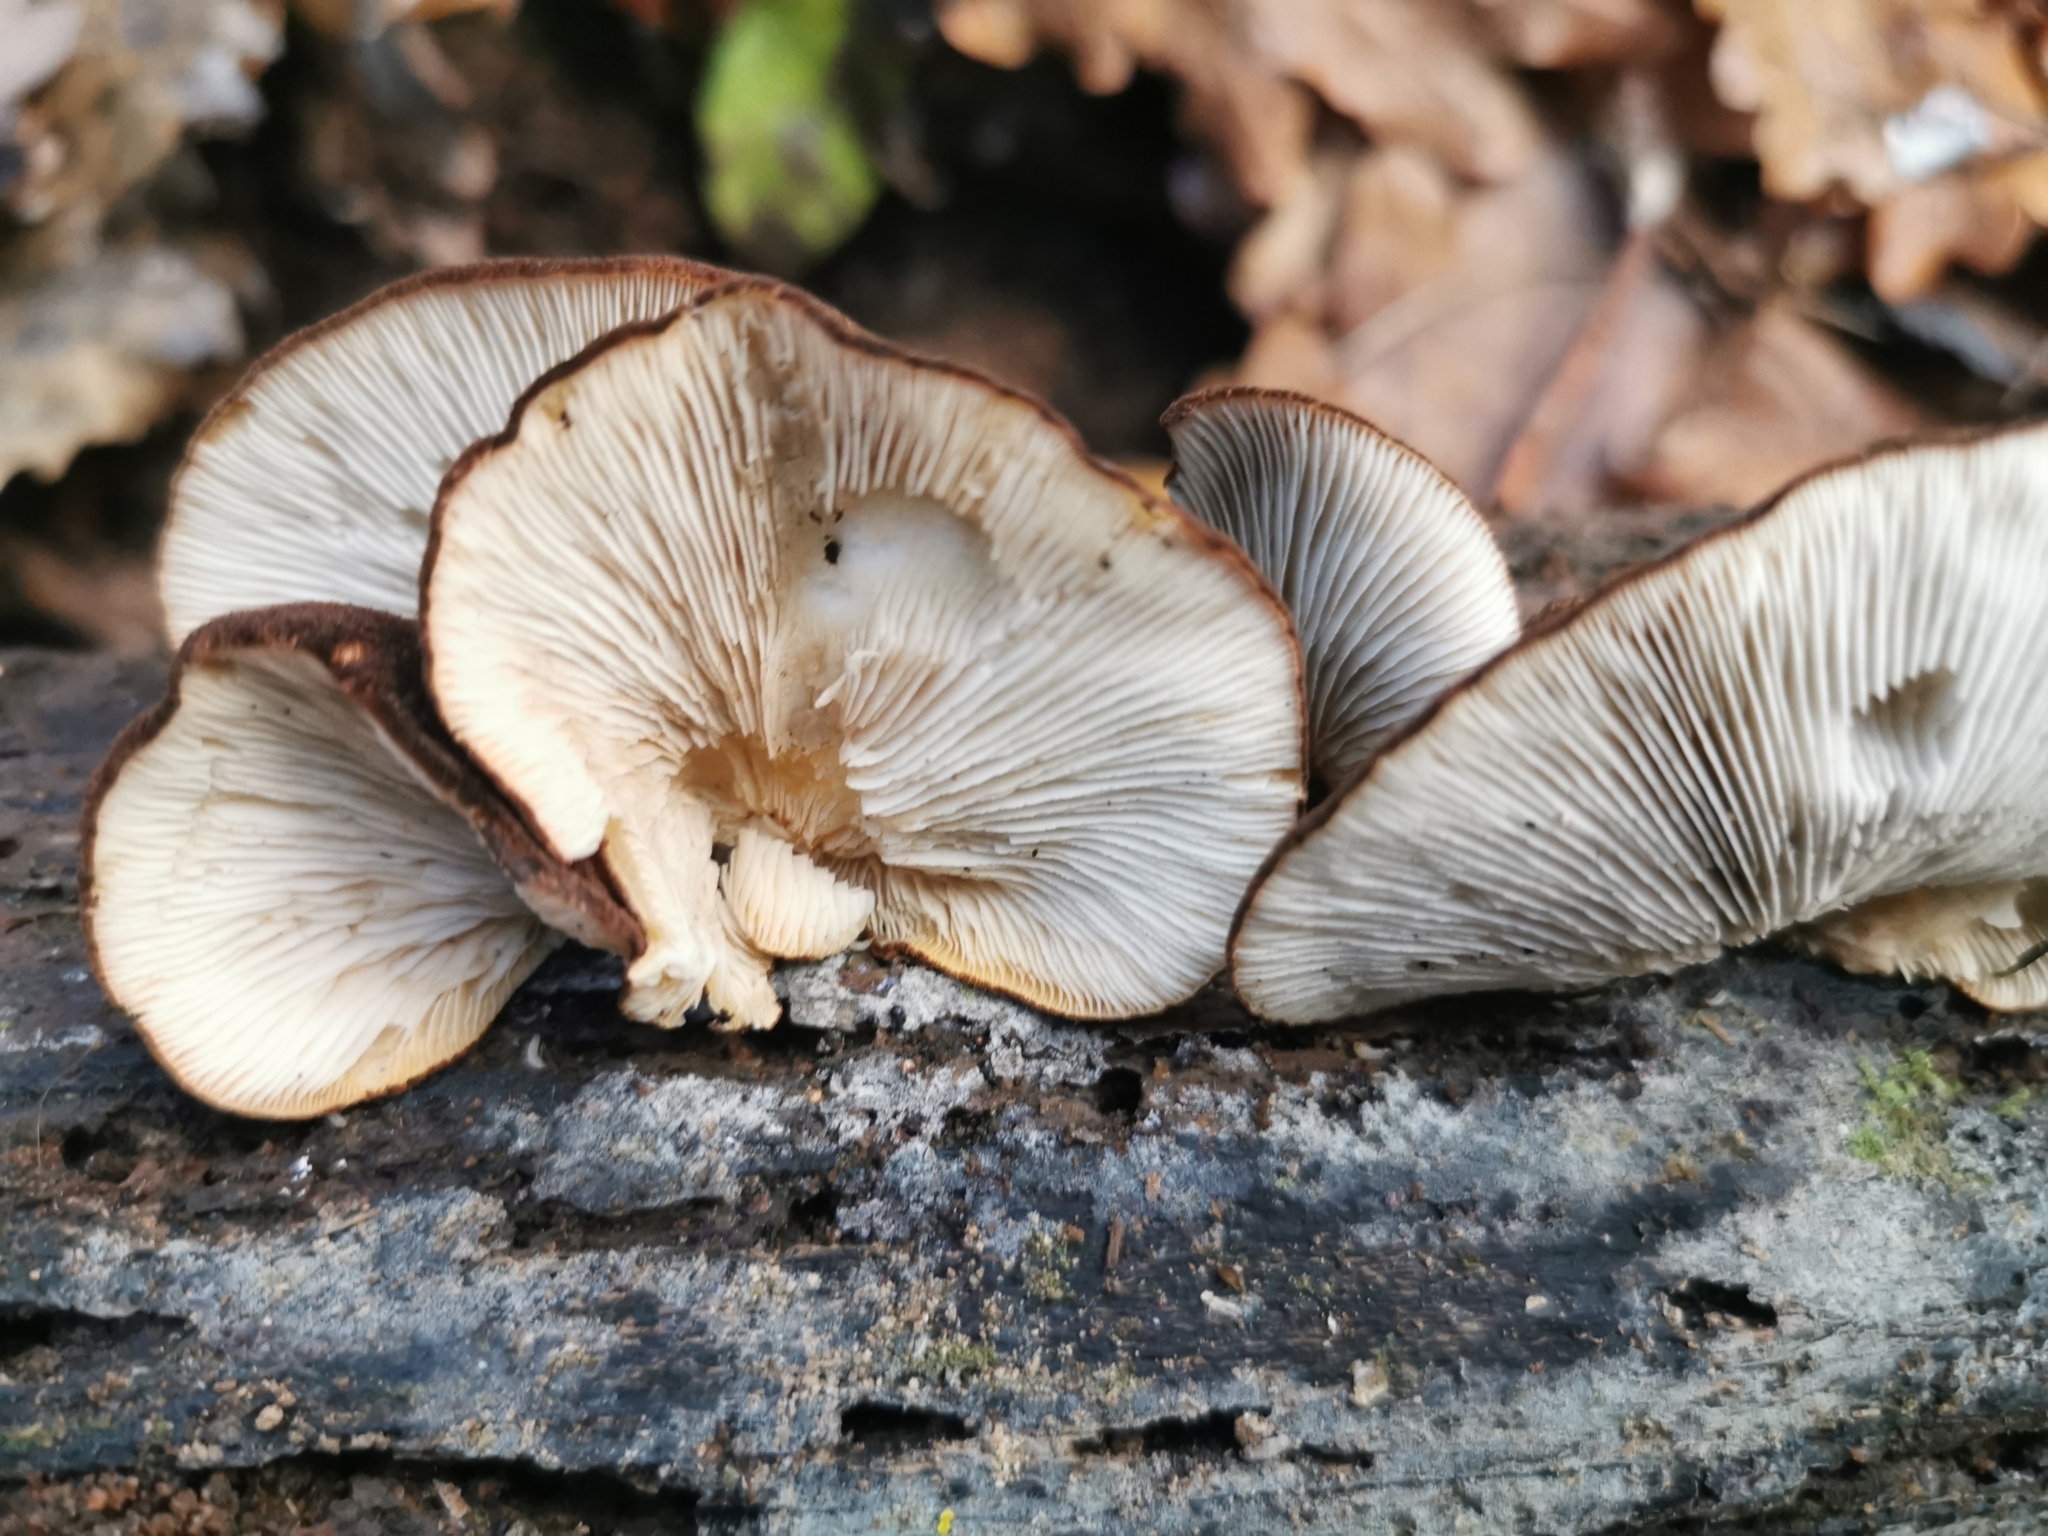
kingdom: Fungi
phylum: Basidiomycota
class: Agaricomycetes
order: Agaricales
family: Crepidotaceae
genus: Crepidotus
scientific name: Crepidotus fuscovelutinus
